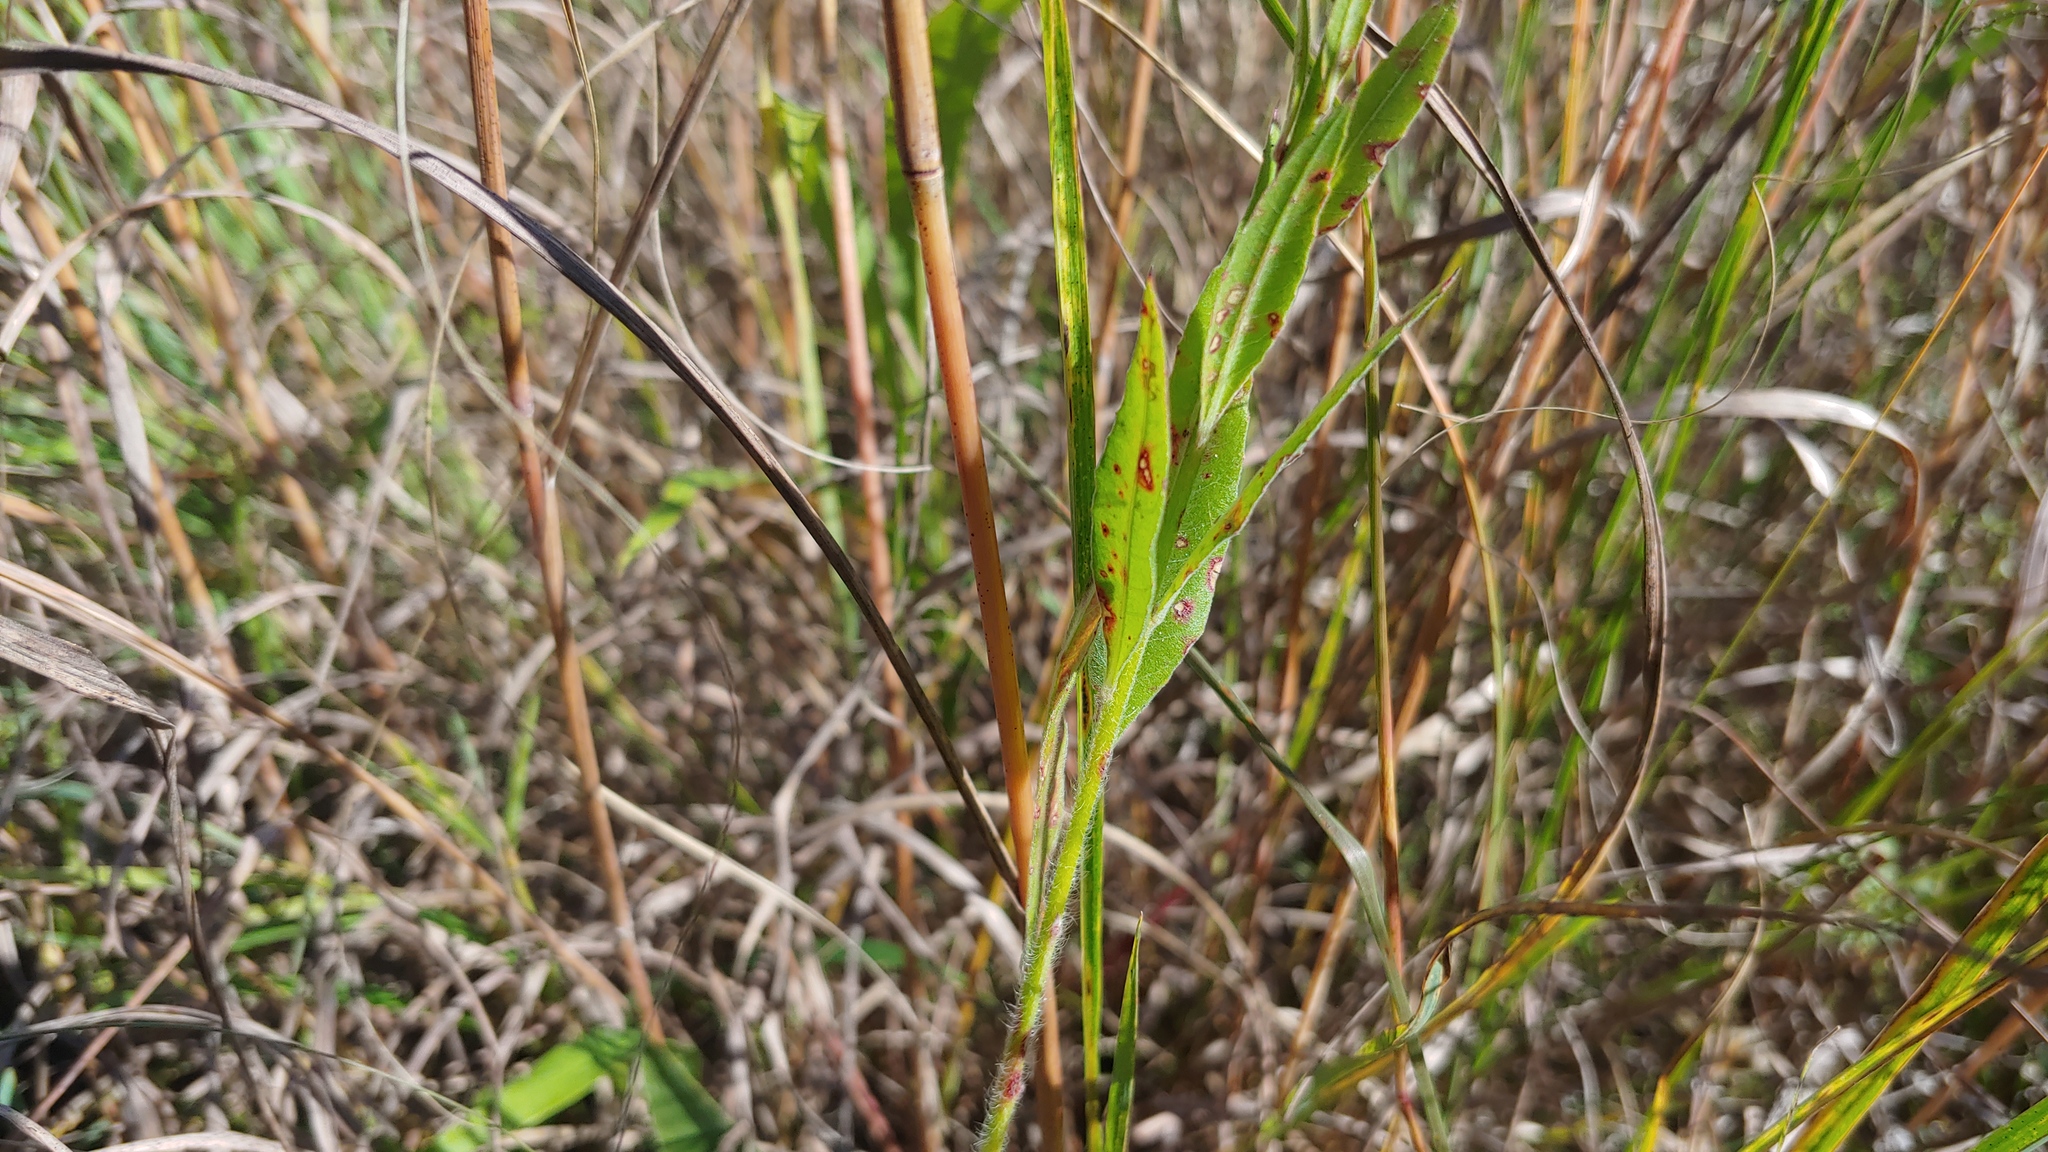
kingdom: Plantae
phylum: Tracheophyta
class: Magnoliopsida
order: Myrtales
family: Onagraceae
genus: Oenothera
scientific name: Oenothera filiformis
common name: Longflower beeblossom
